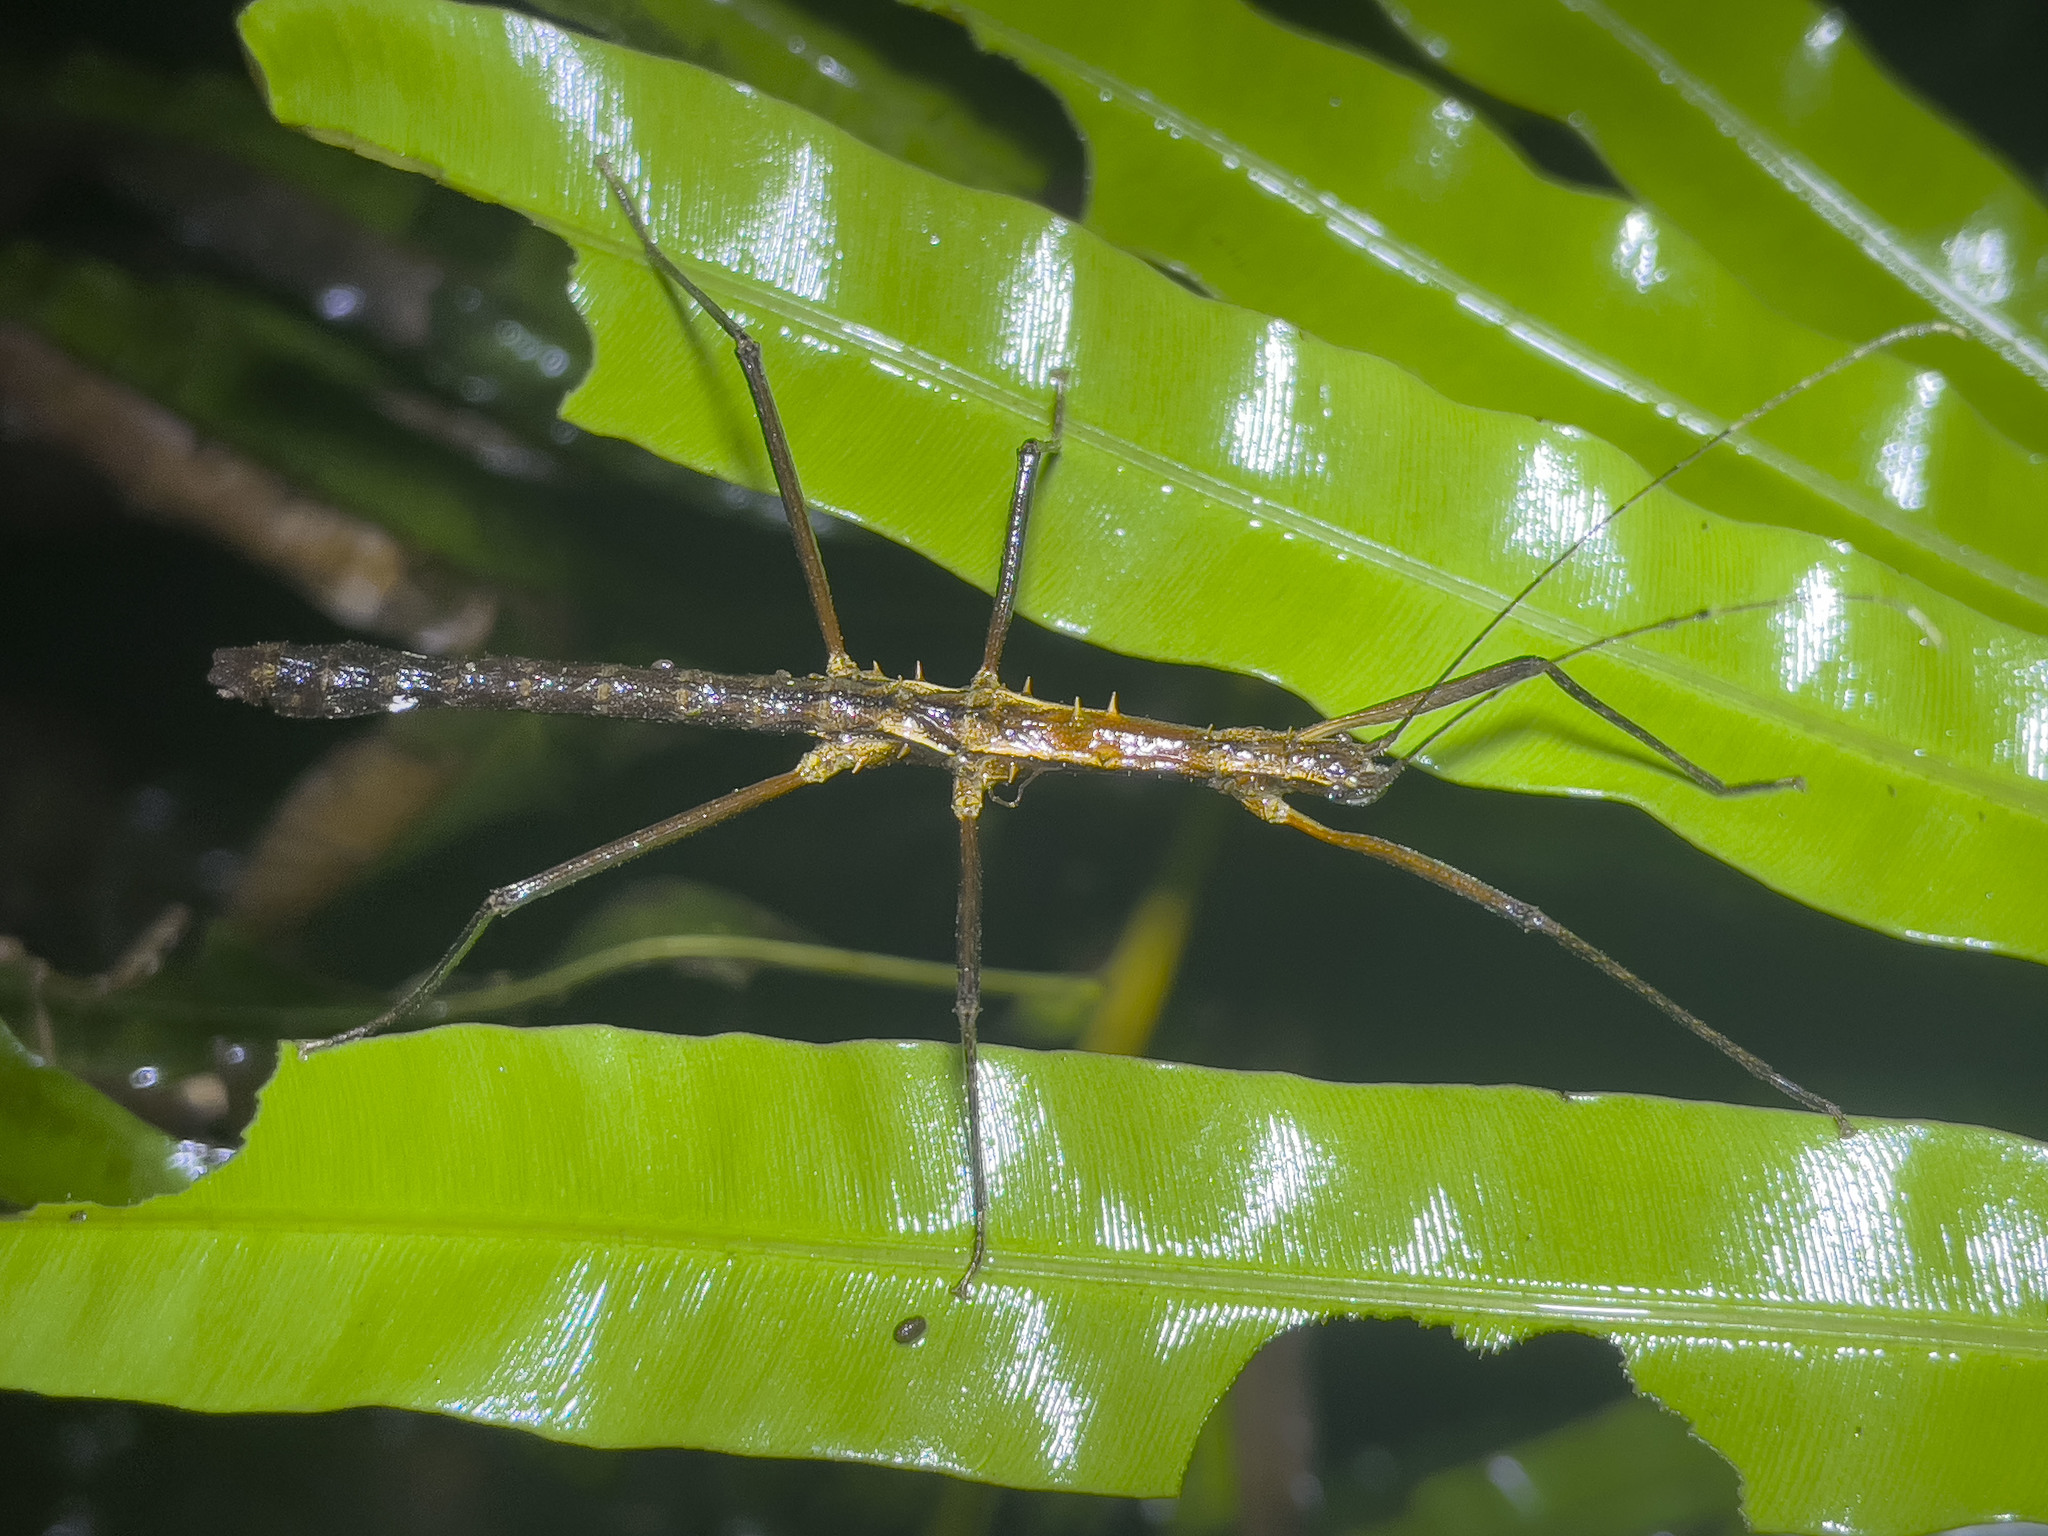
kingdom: Animalia
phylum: Arthropoda
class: Insecta
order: Phasmida
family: Lonchodidae
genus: Neohirasea
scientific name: Neohirasea hongkongensis
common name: Hong kong spiny stick insect
